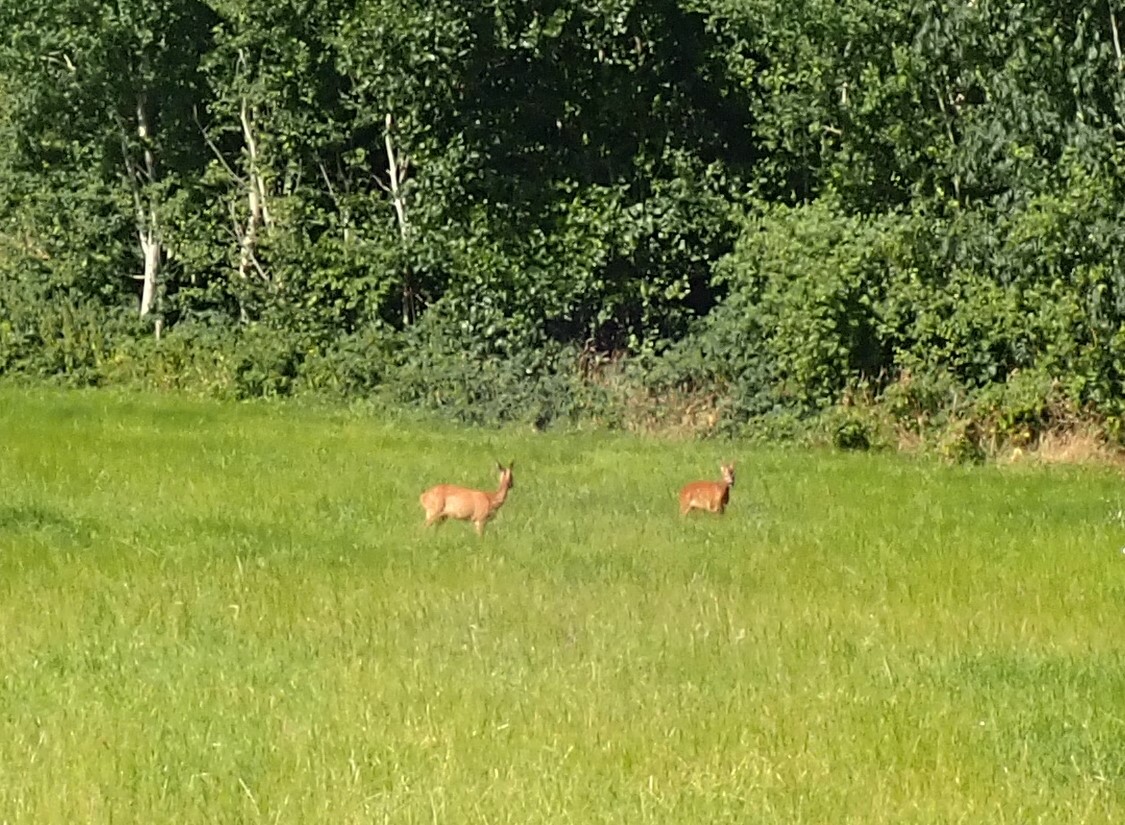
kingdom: Animalia
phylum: Chordata
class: Mammalia
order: Artiodactyla
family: Cervidae
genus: Capreolus
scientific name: Capreolus capreolus
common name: Western roe deer
